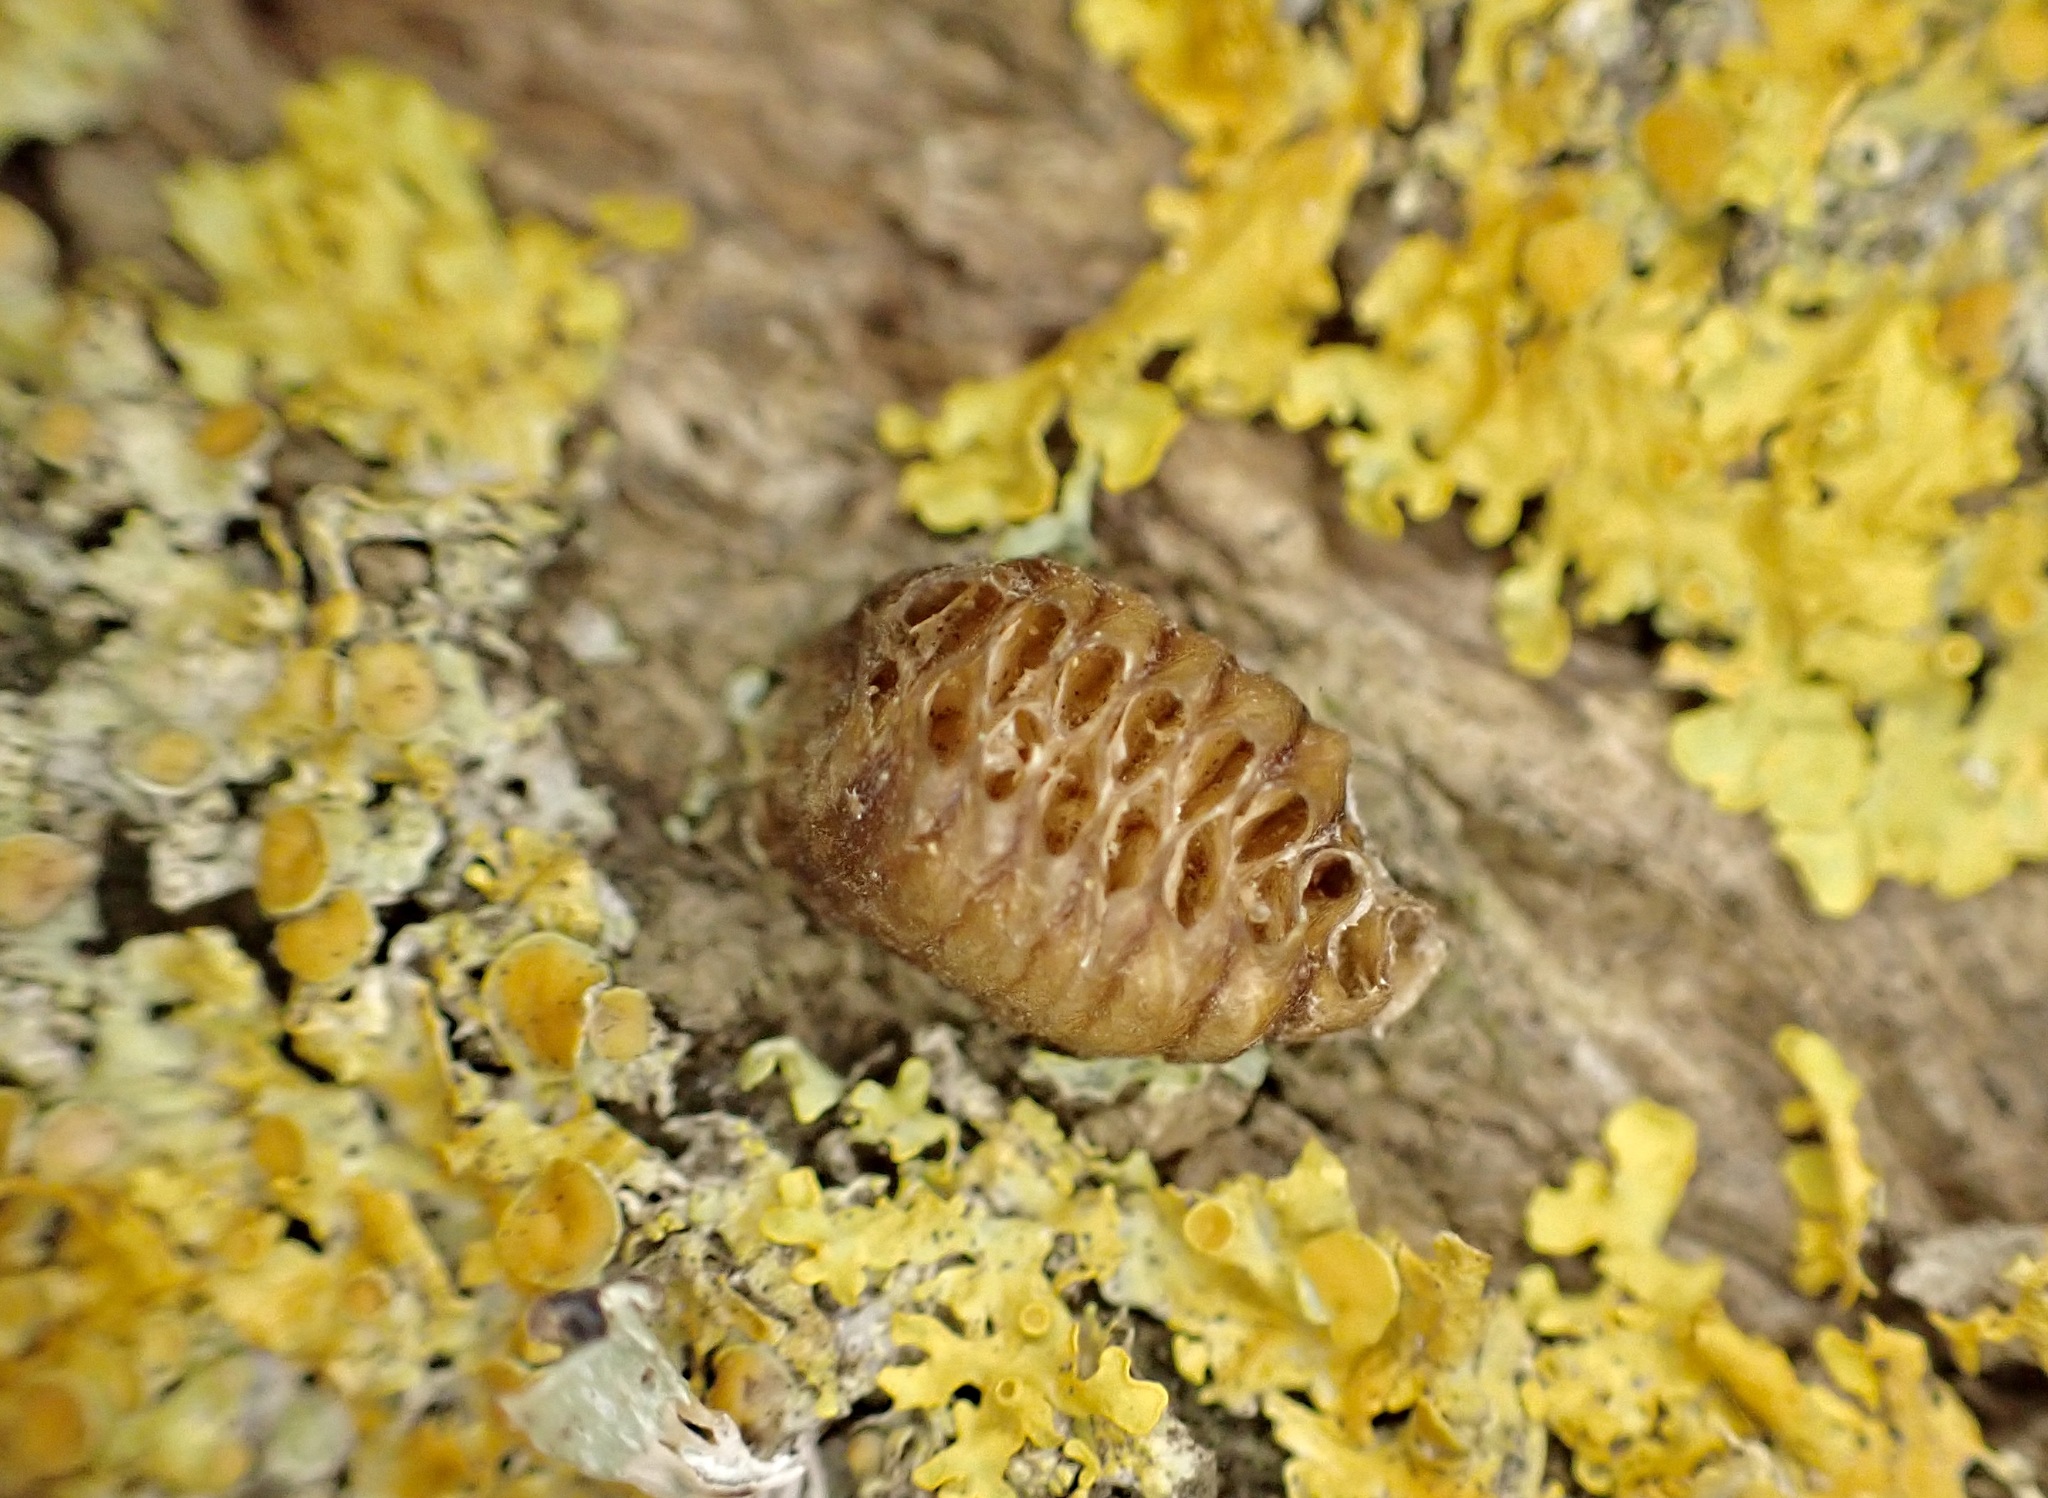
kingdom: Animalia
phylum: Arthropoda
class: Insecta
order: Mantodea
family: Mantidae
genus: Orthodera
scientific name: Orthodera novaezealandiae
